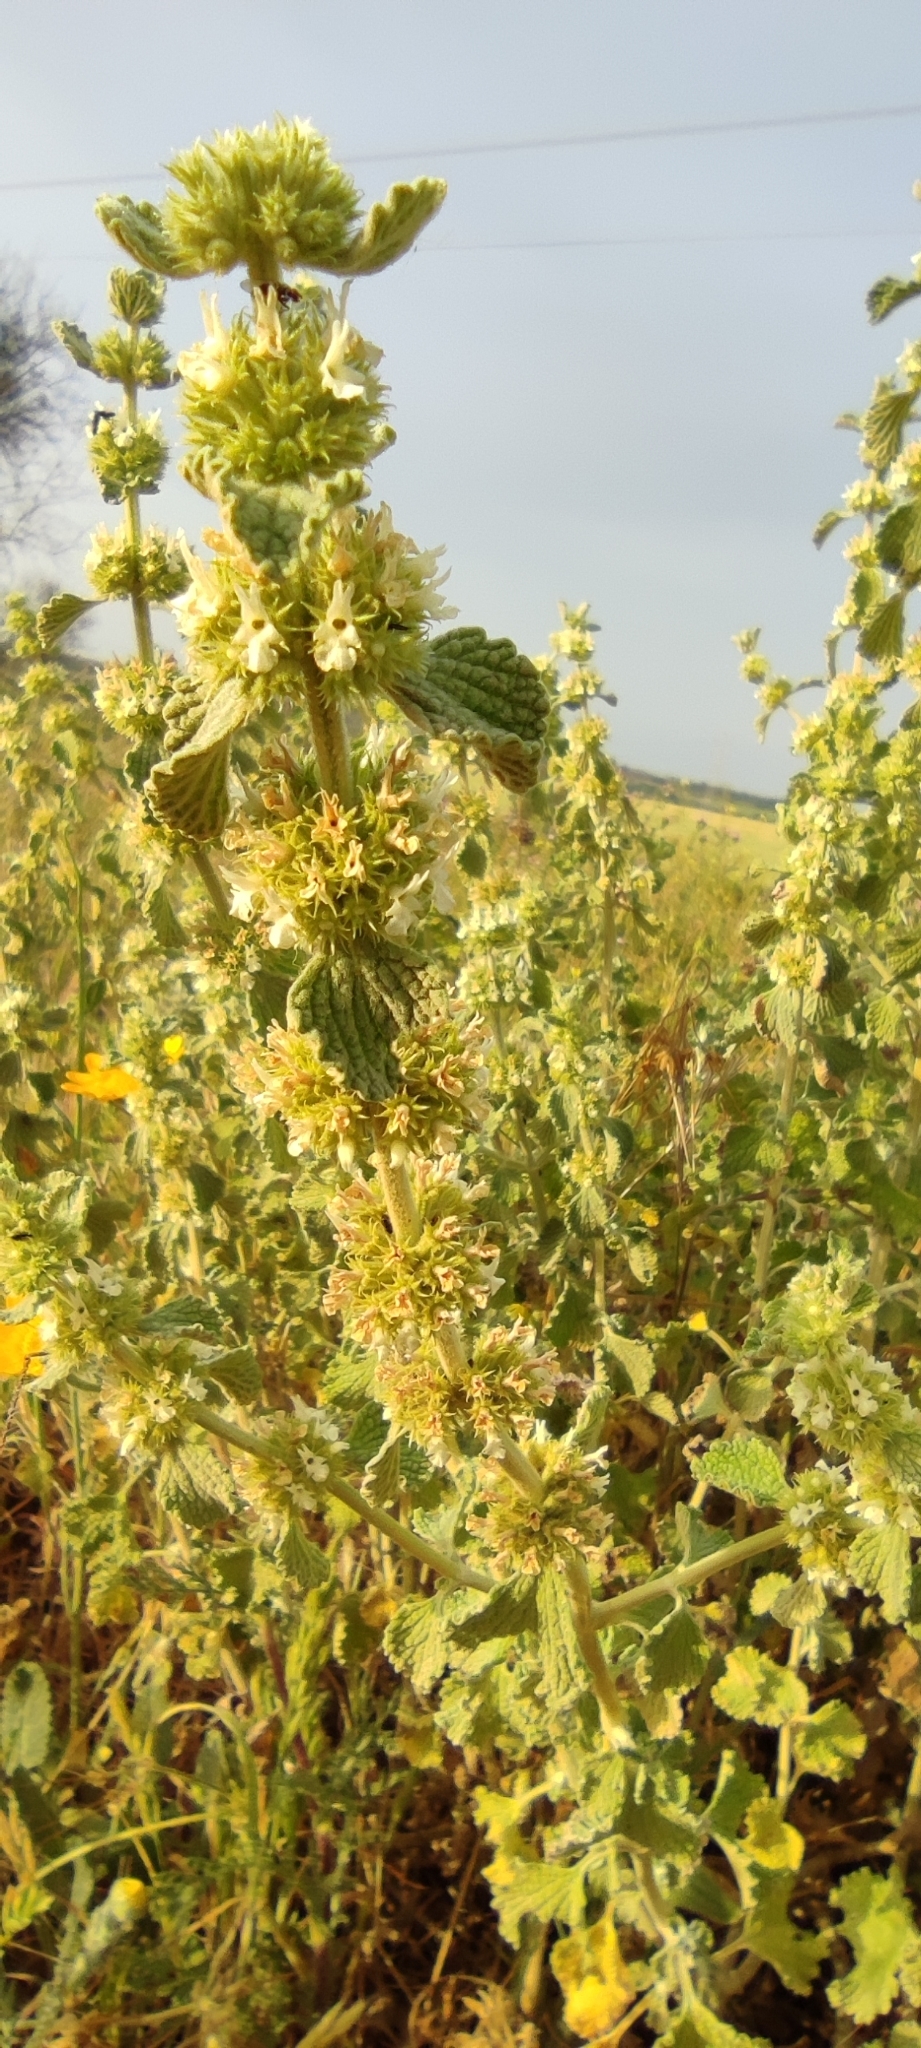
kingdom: Plantae
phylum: Tracheophyta
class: Magnoliopsida
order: Lamiales
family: Lamiaceae
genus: Marrubium
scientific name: Marrubium vulgare
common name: Horehound
